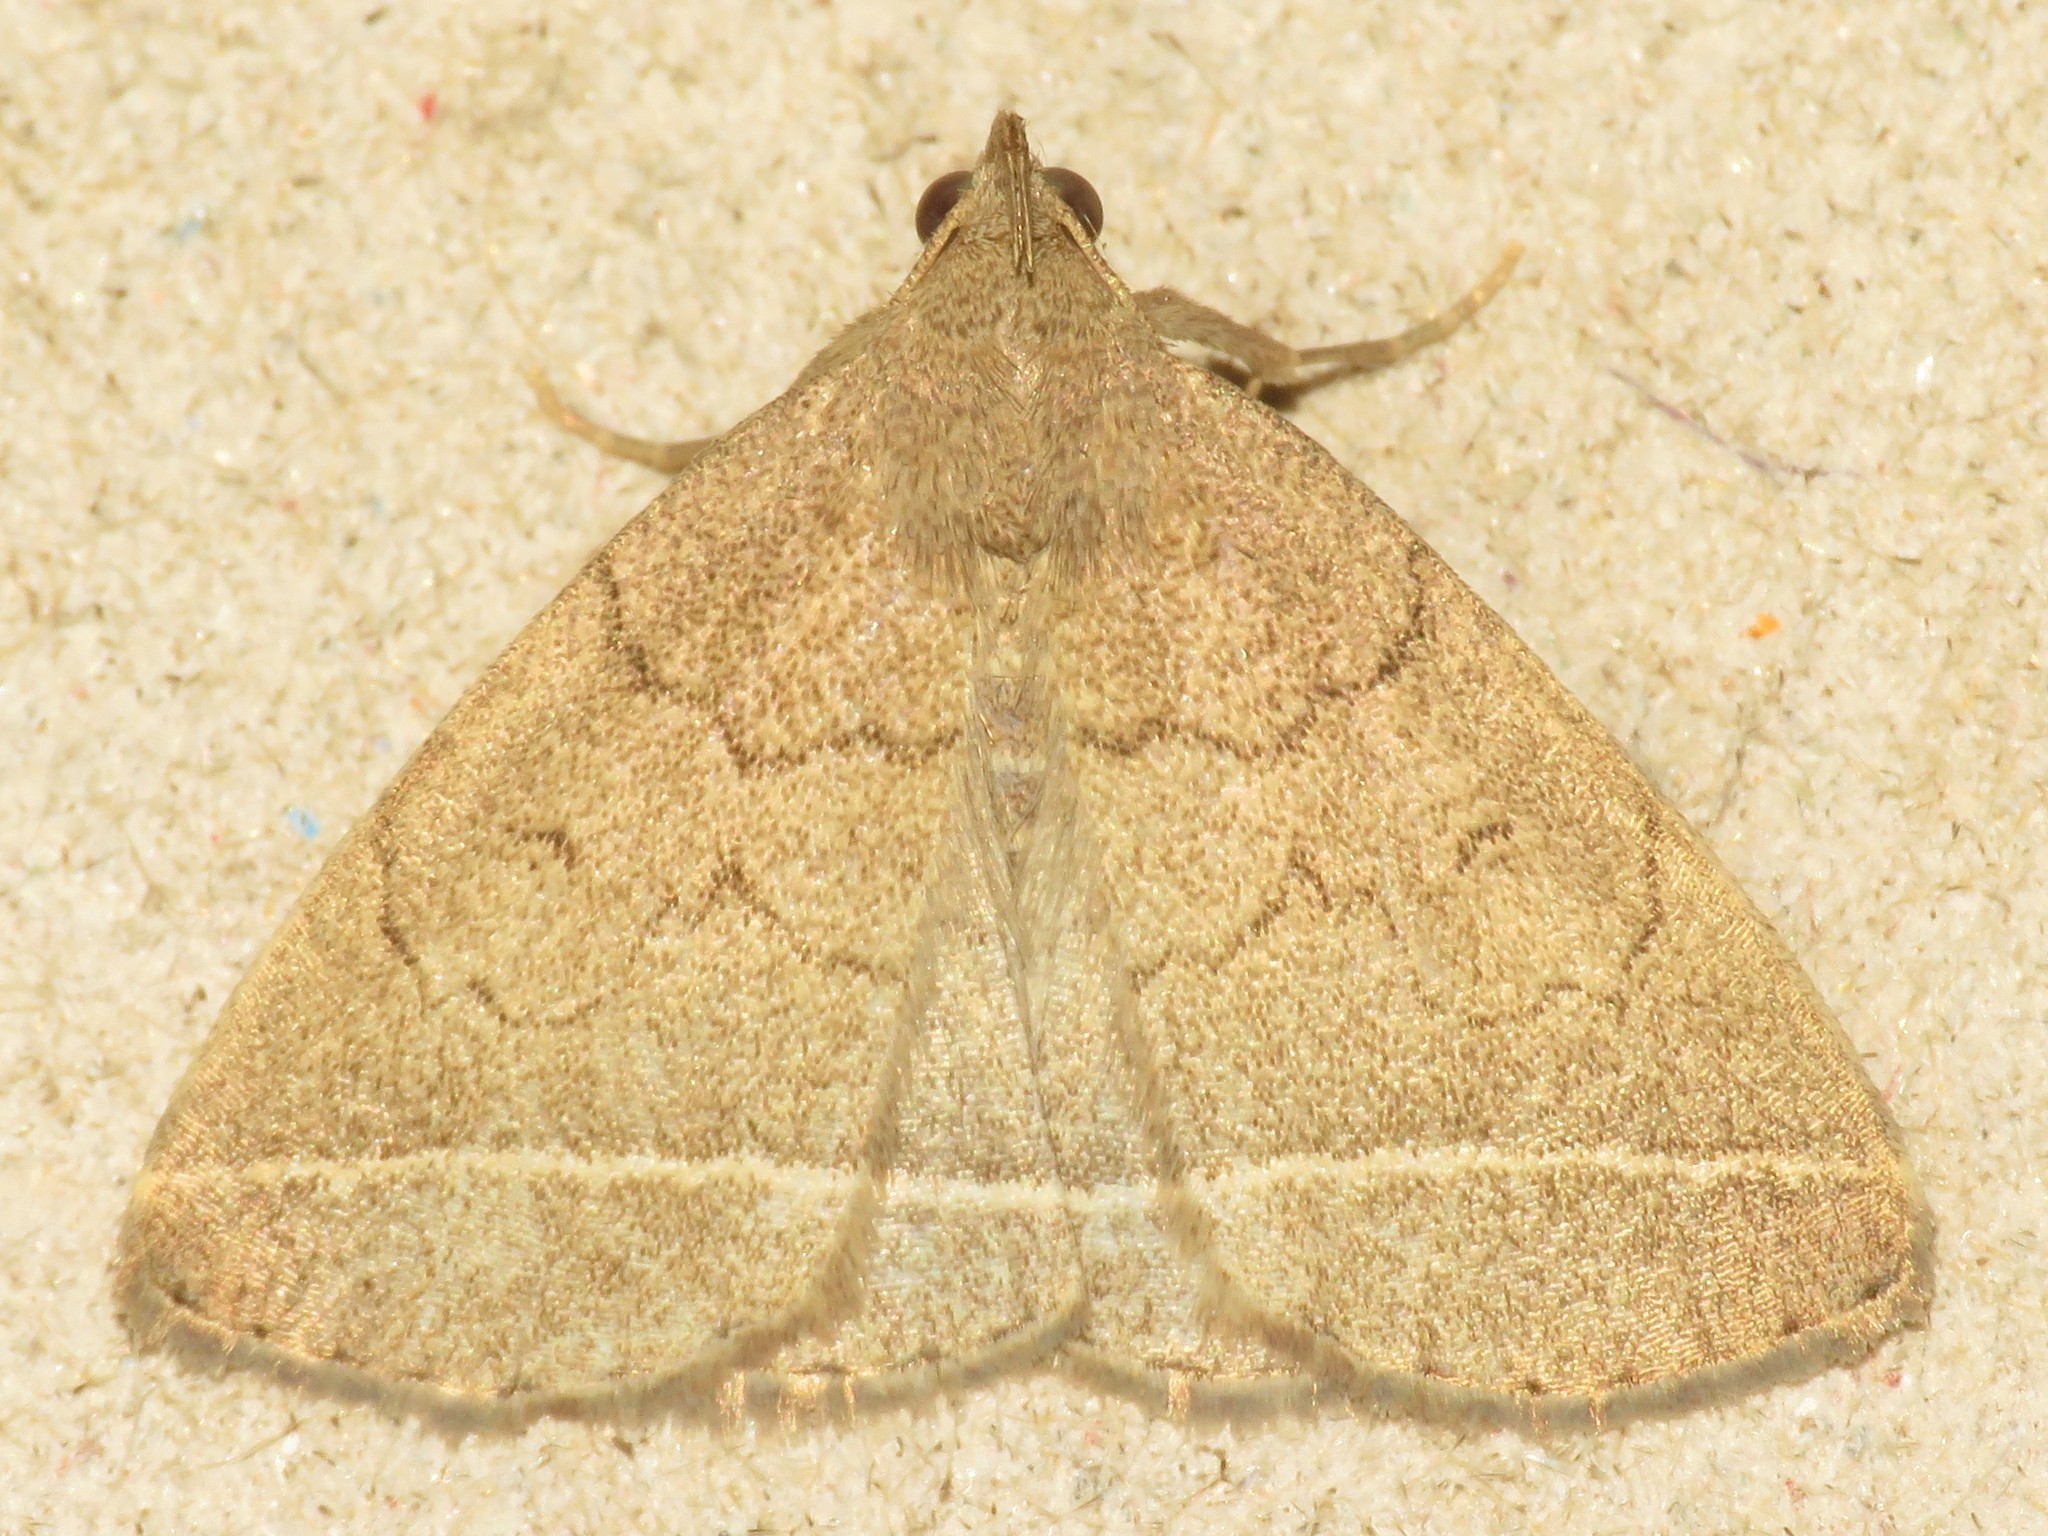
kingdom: Animalia
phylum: Arthropoda
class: Insecta
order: Lepidoptera
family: Erebidae
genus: Zanclognatha
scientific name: Zanclognatha marcidilinea
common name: Yellowish fan-foot
